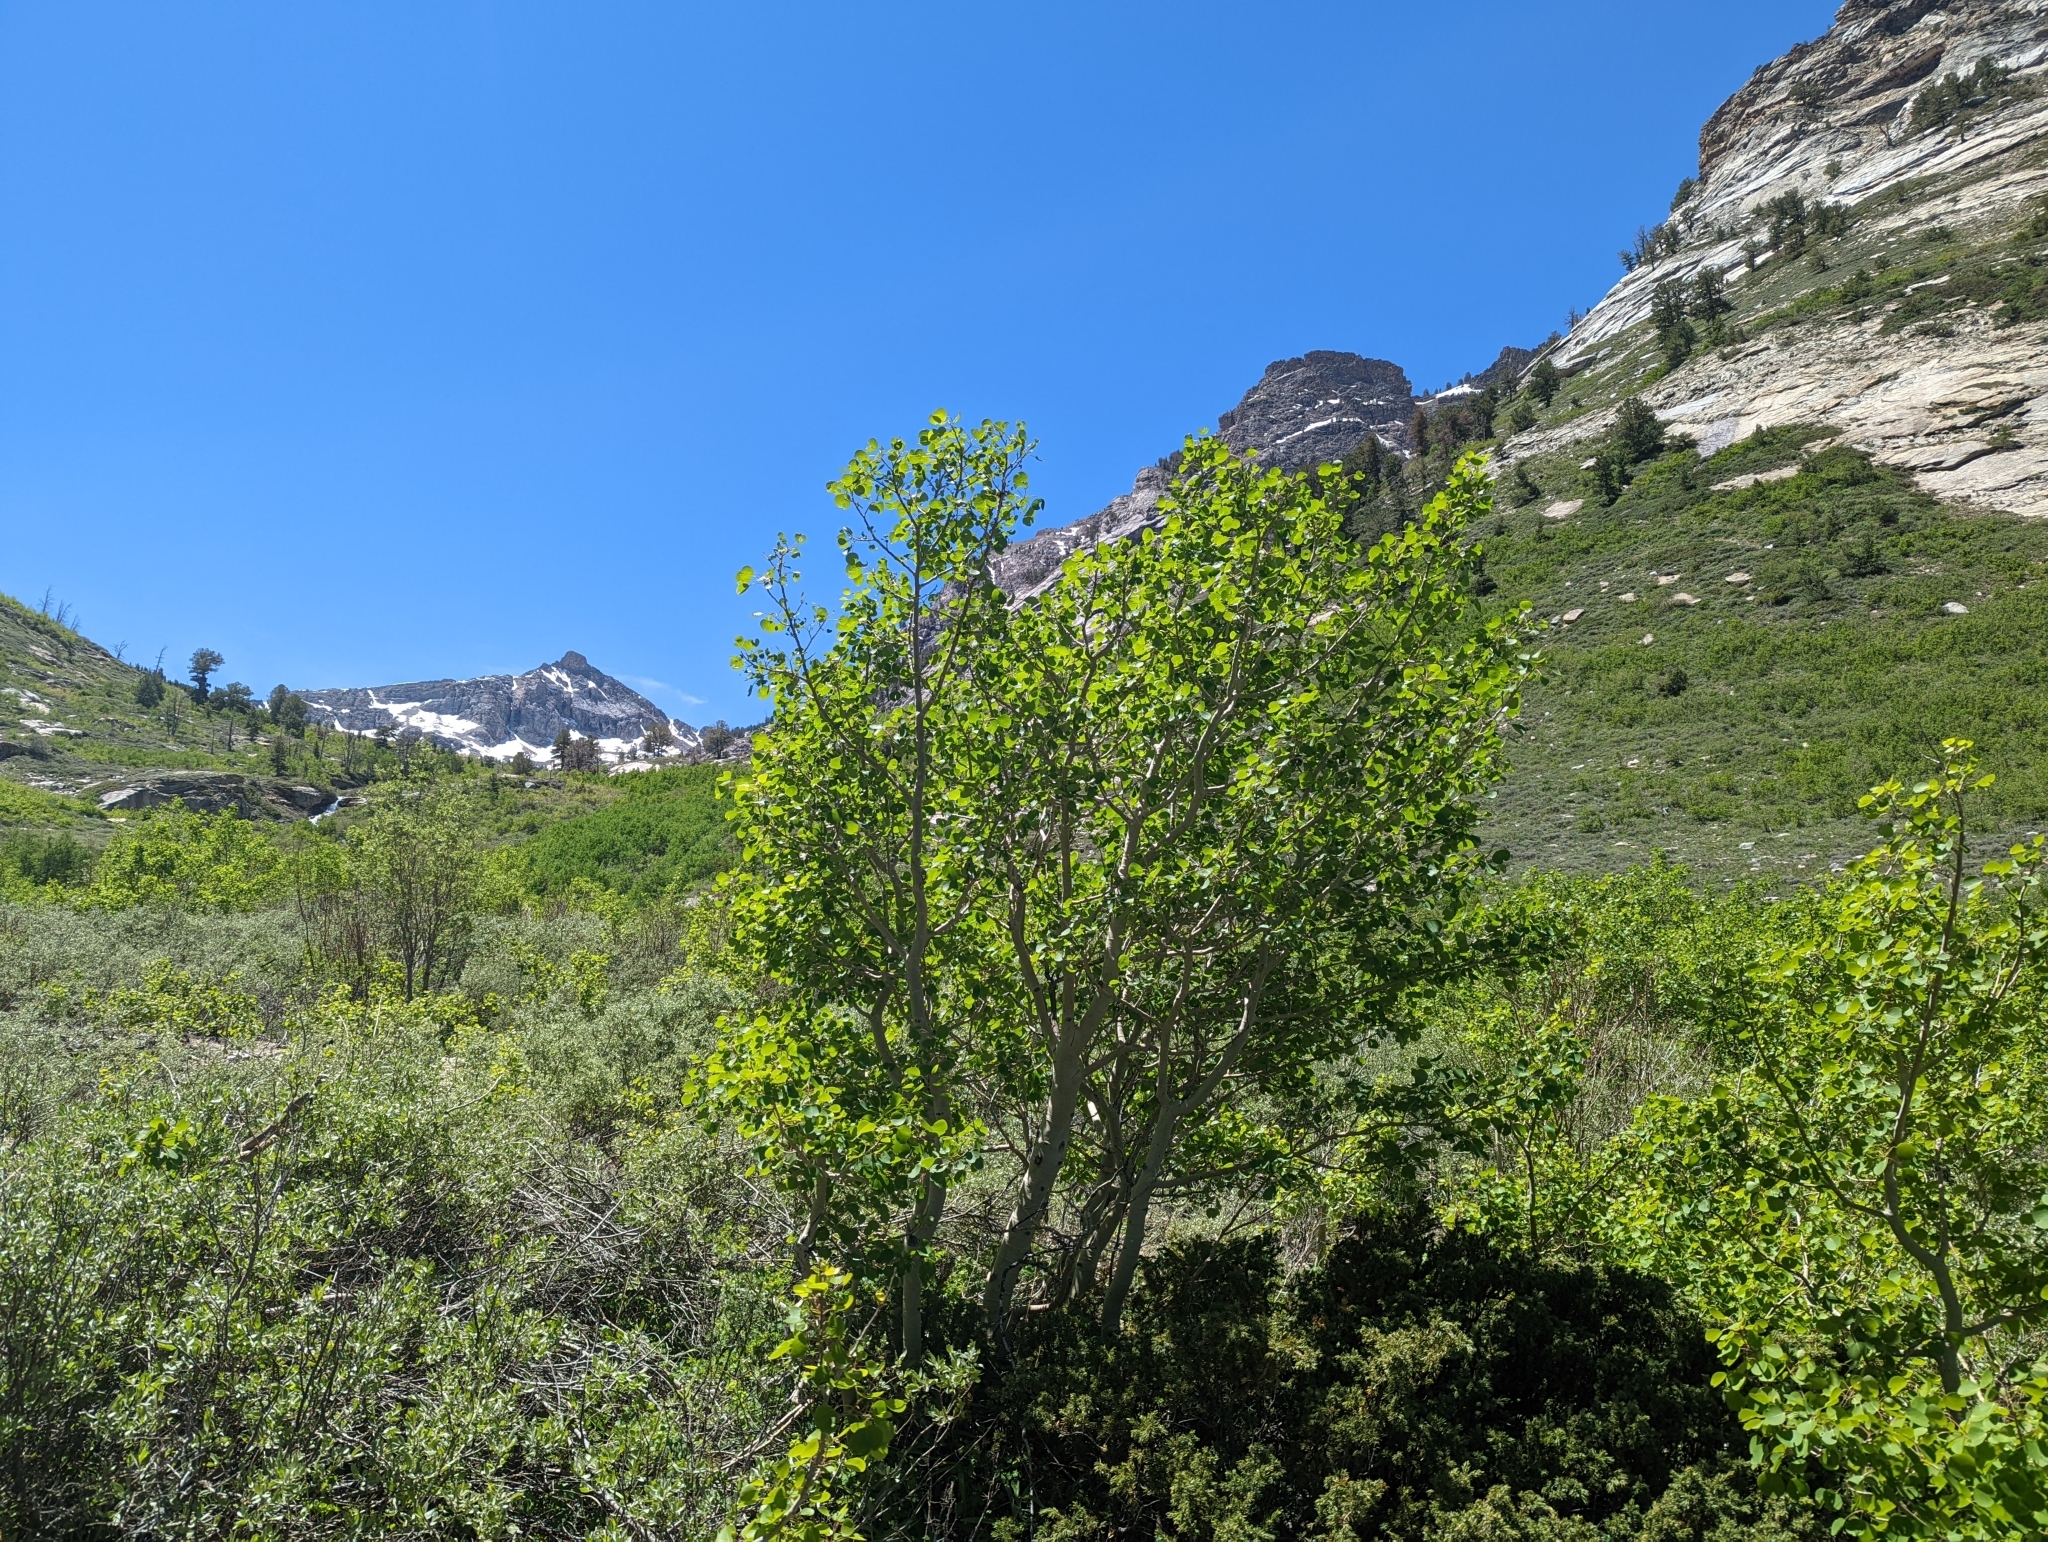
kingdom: Plantae
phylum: Tracheophyta
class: Magnoliopsida
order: Malpighiales
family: Salicaceae
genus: Populus
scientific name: Populus tremuloides
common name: Quaking aspen
